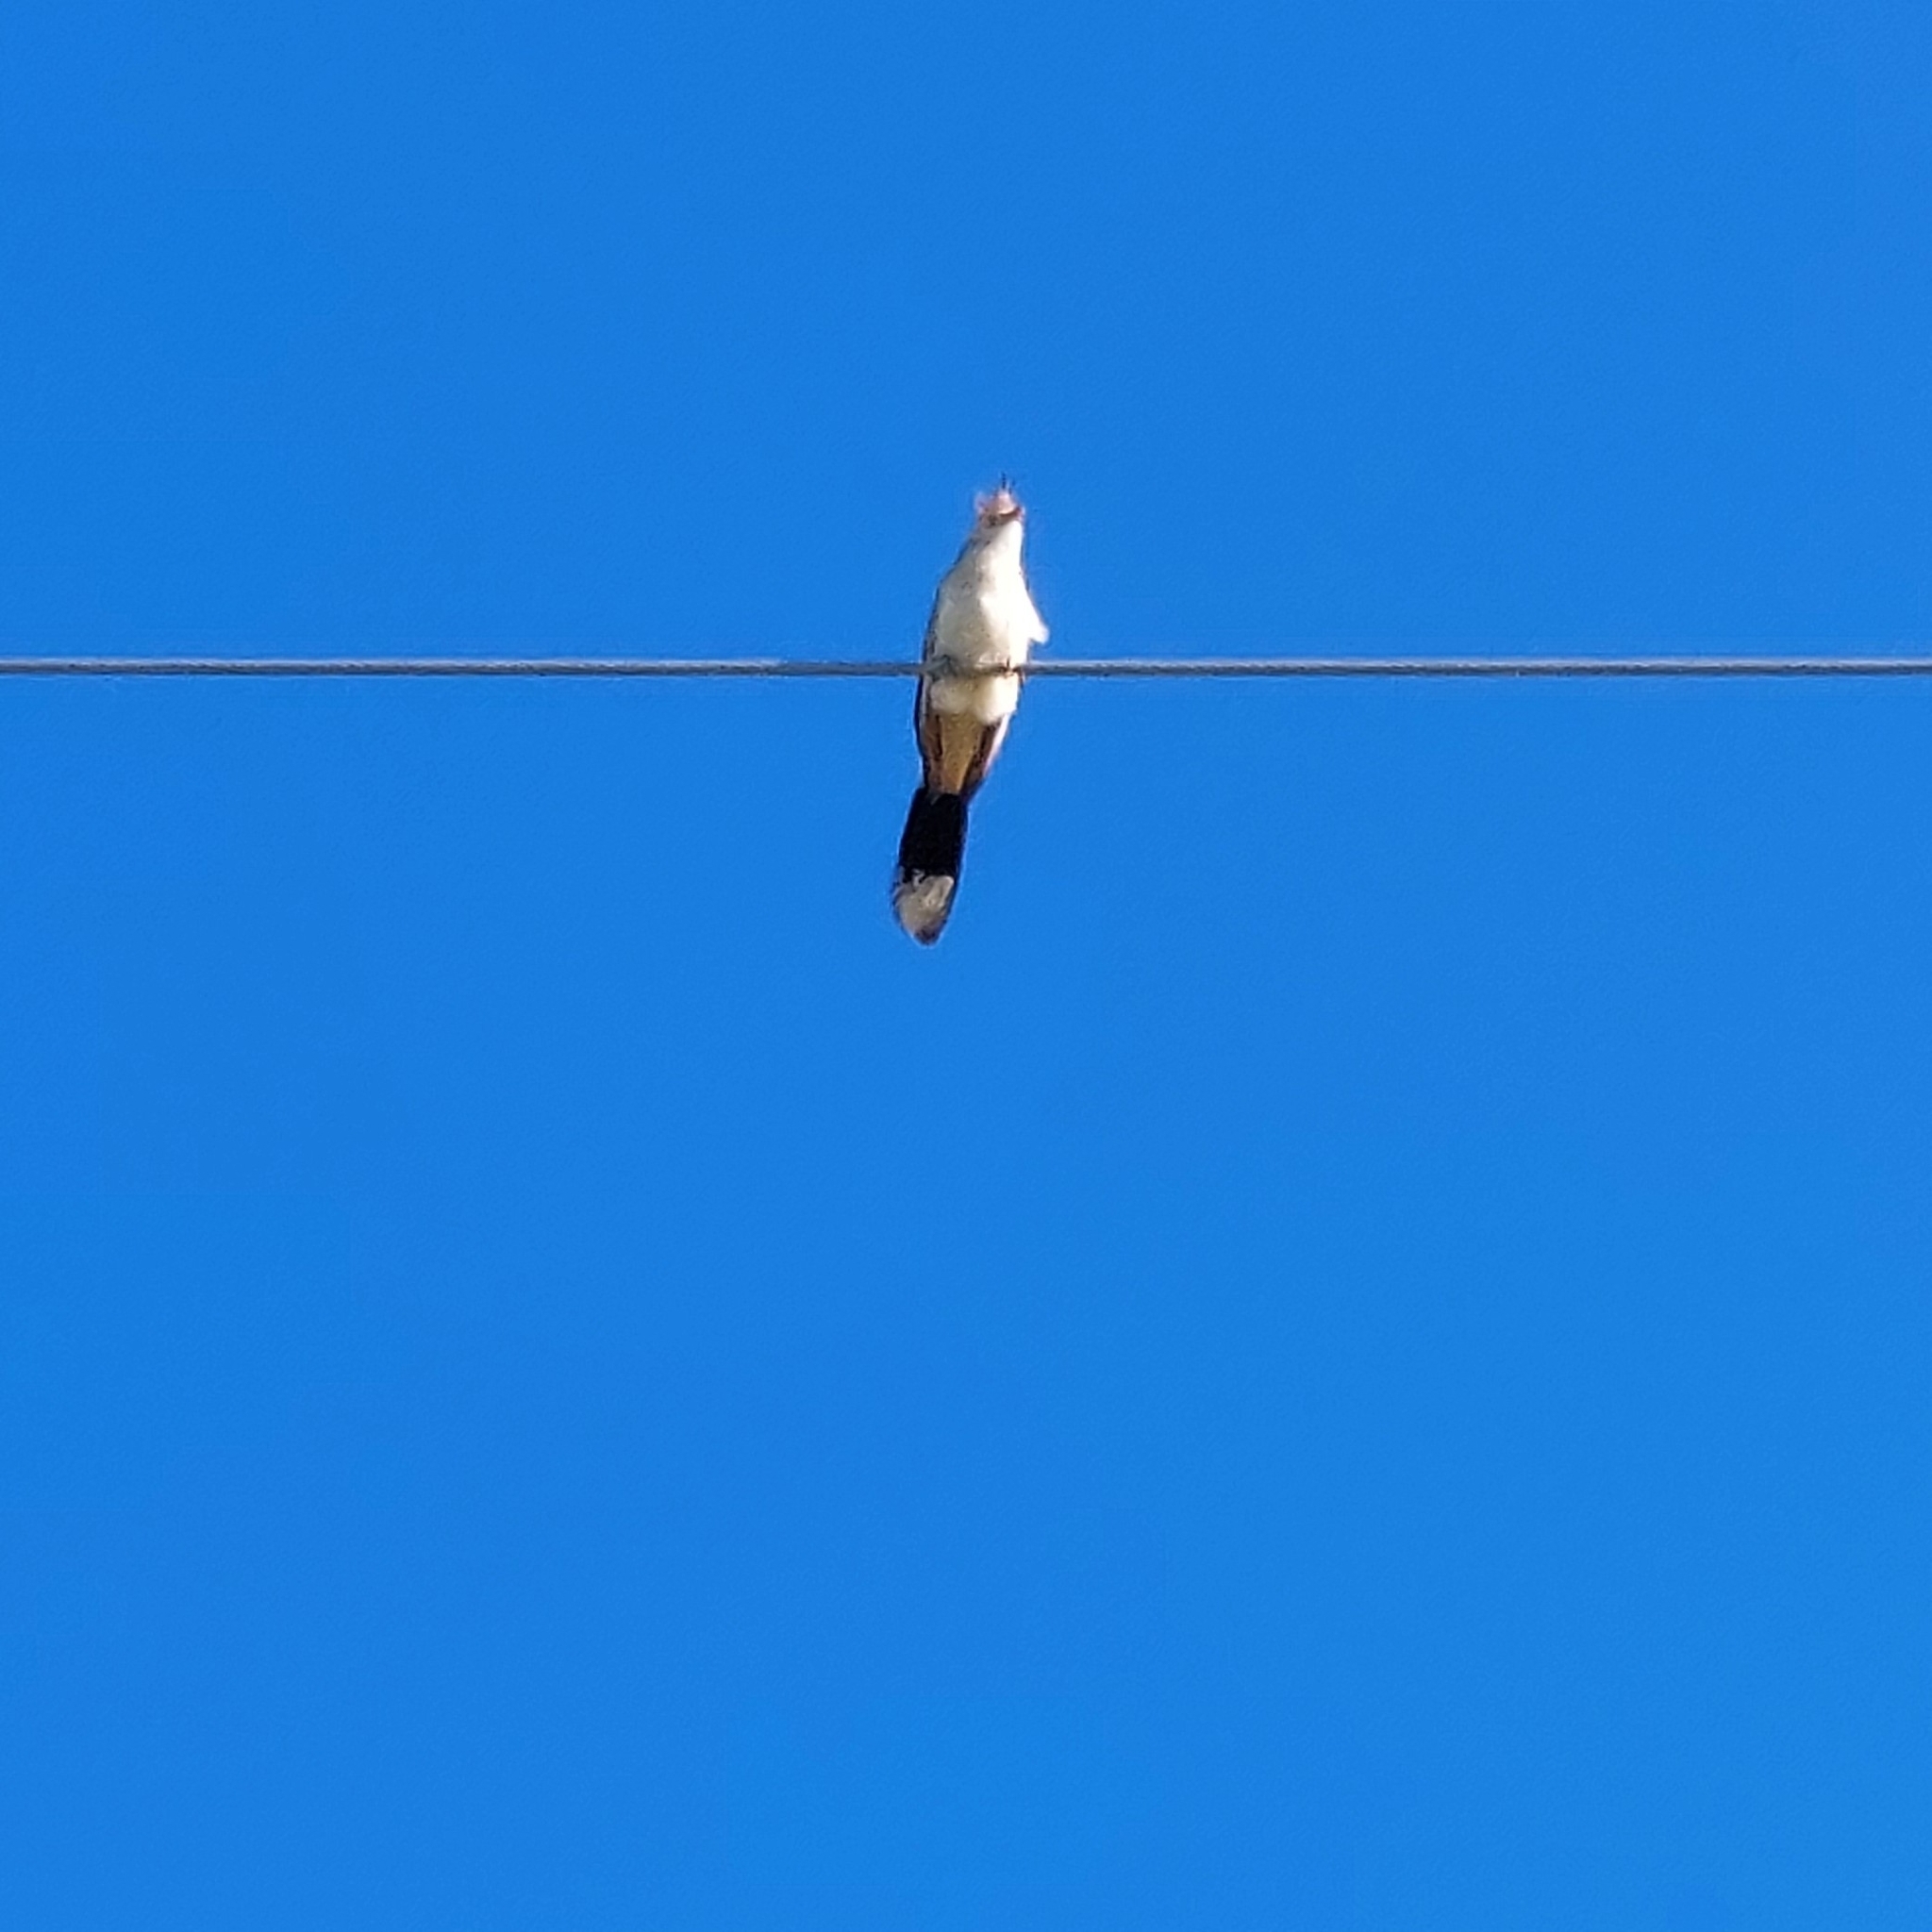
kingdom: Animalia
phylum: Chordata
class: Aves
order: Cuculiformes
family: Cuculidae
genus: Guira
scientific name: Guira guira
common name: Guira cuckoo
